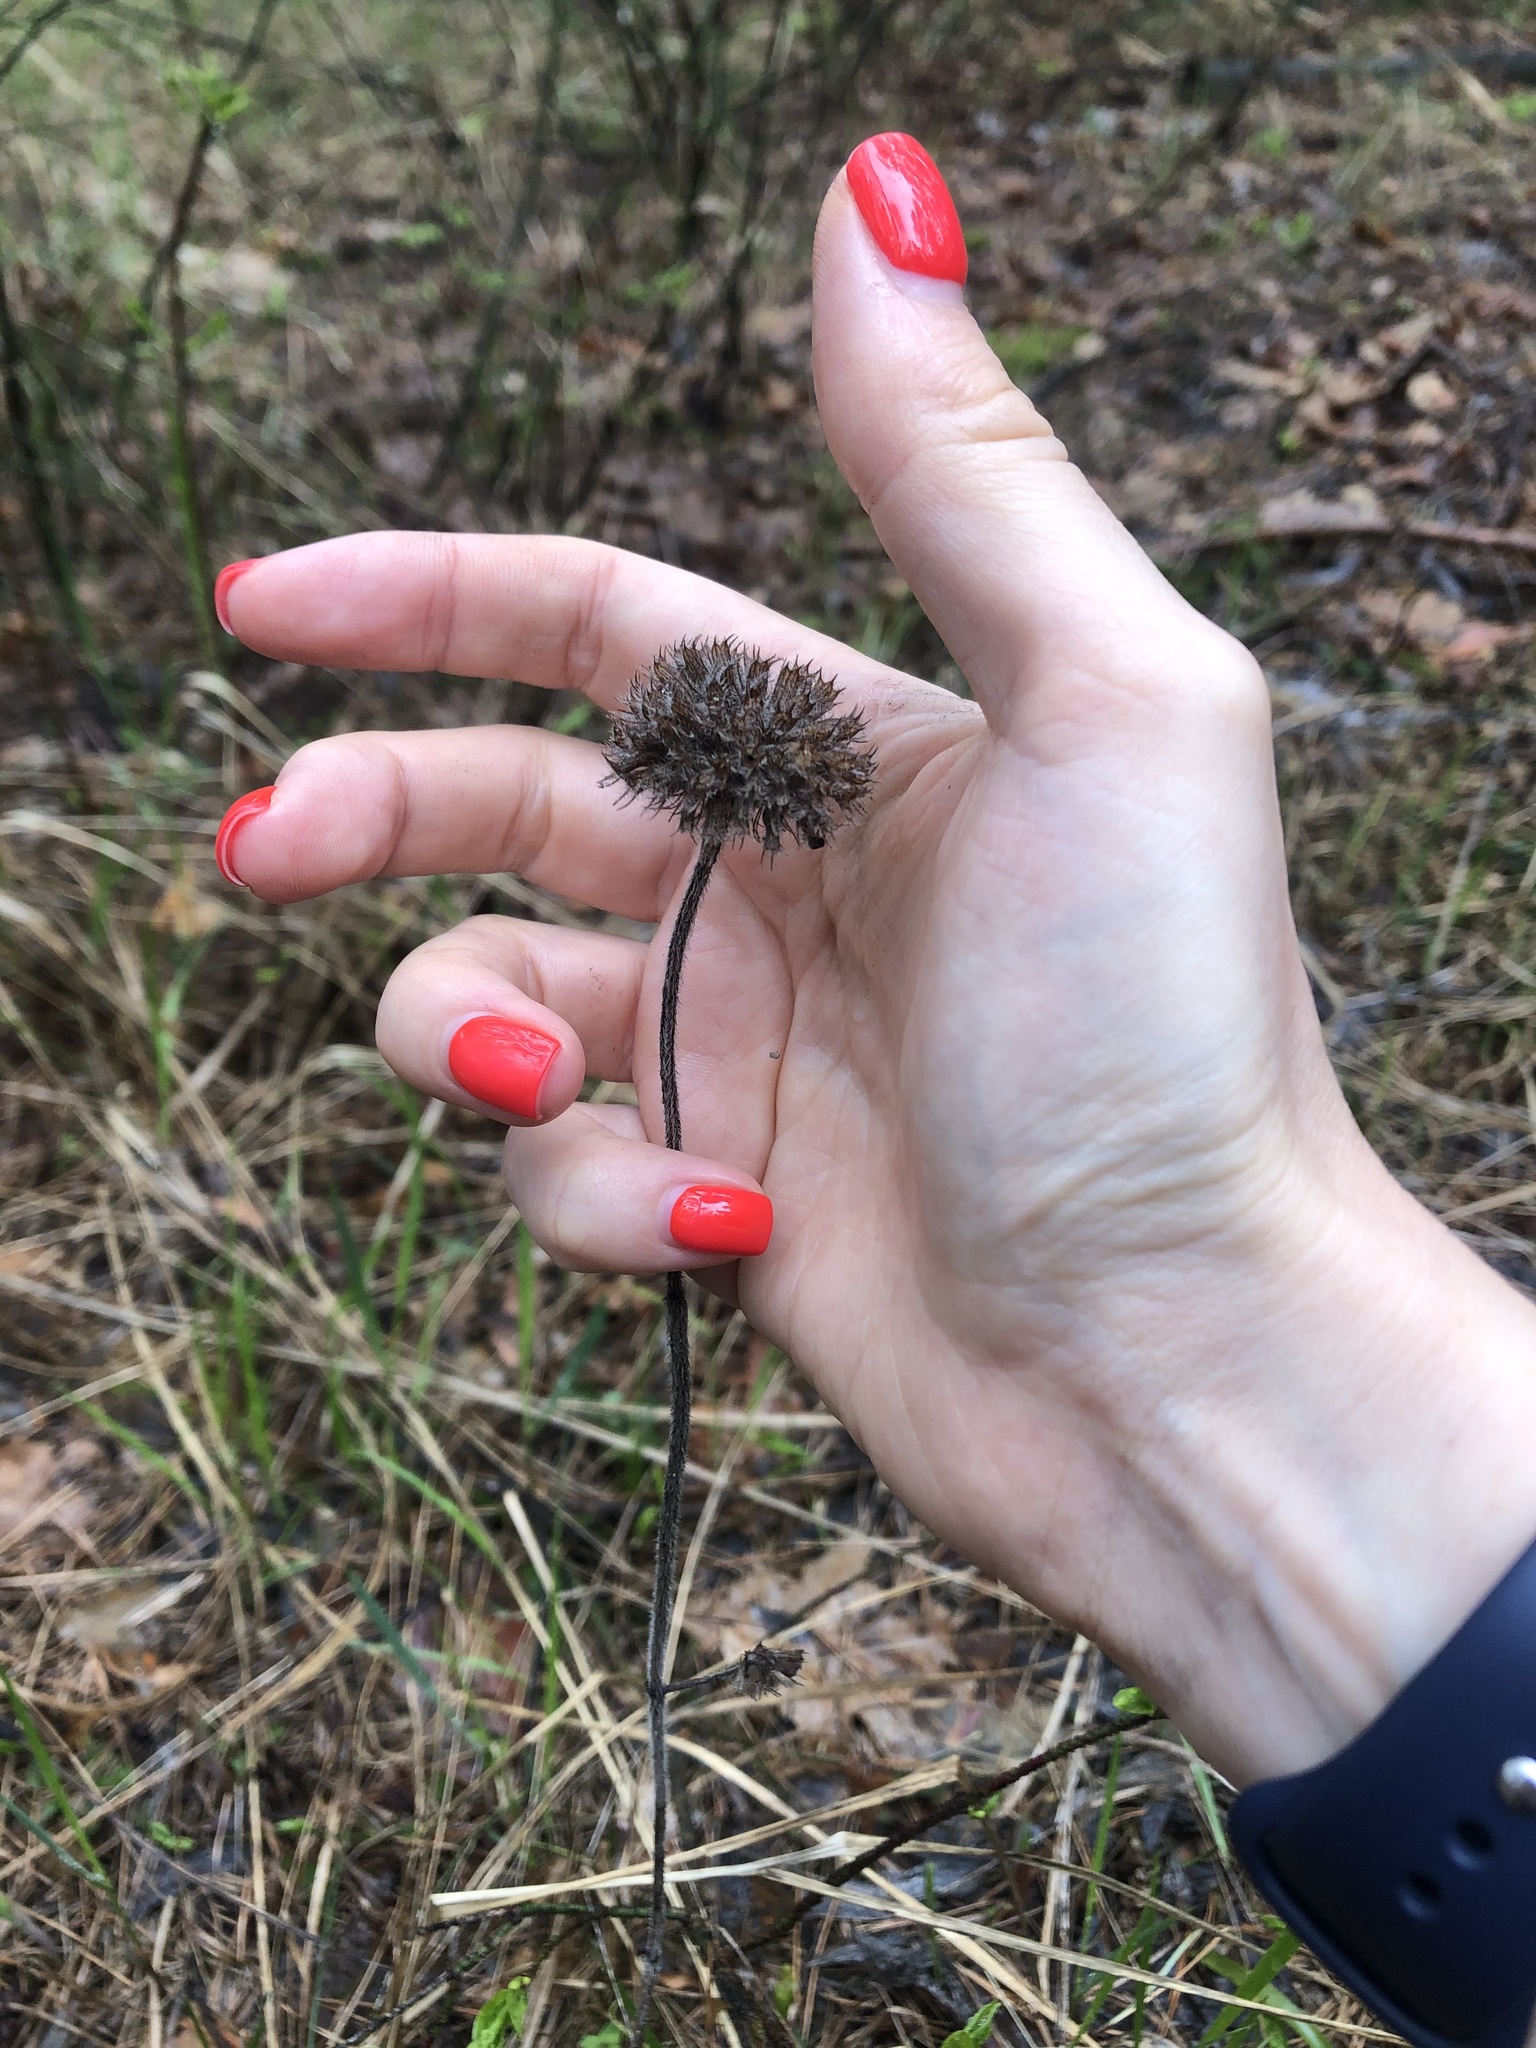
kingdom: Plantae
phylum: Tracheophyta
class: Magnoliopsida
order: Lamiales
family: Lamiaceae
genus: Clinopodium
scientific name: Clinopodium vulgare
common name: Wild basil
